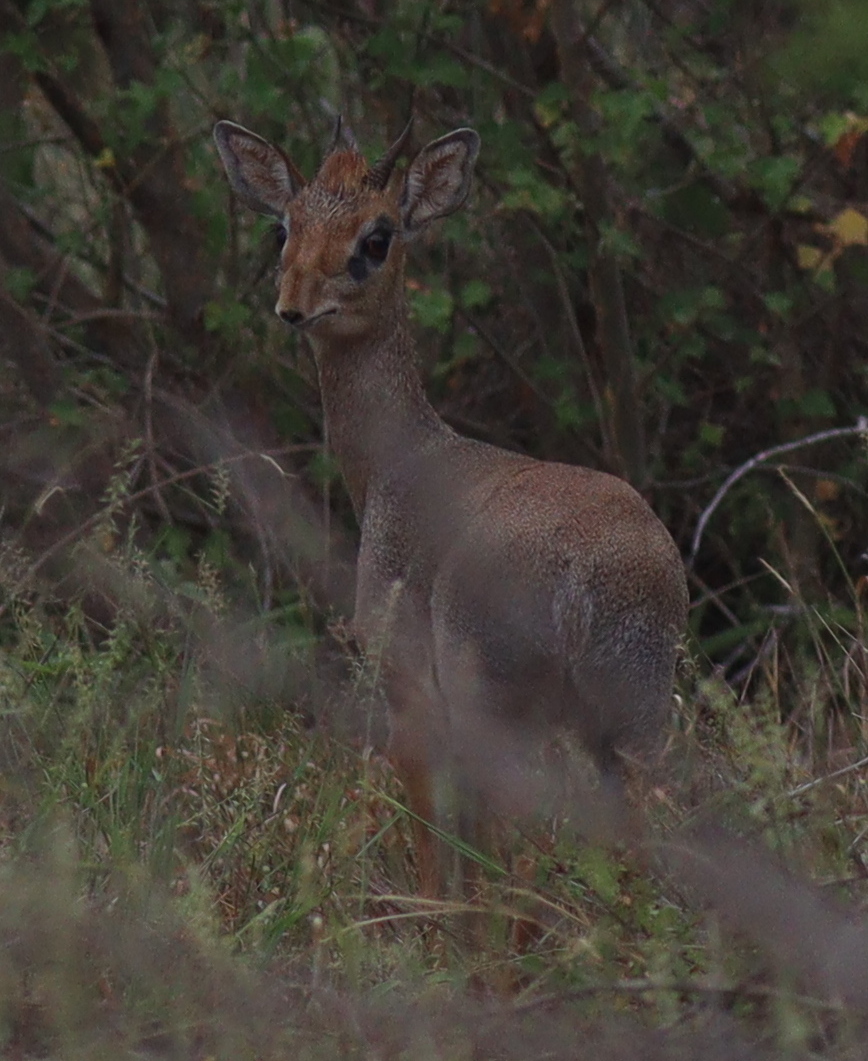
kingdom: Animalia
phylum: Chordata
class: Mammalia
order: Artiodactyla
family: Bovidae
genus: Madoqua
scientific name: Madoqua
